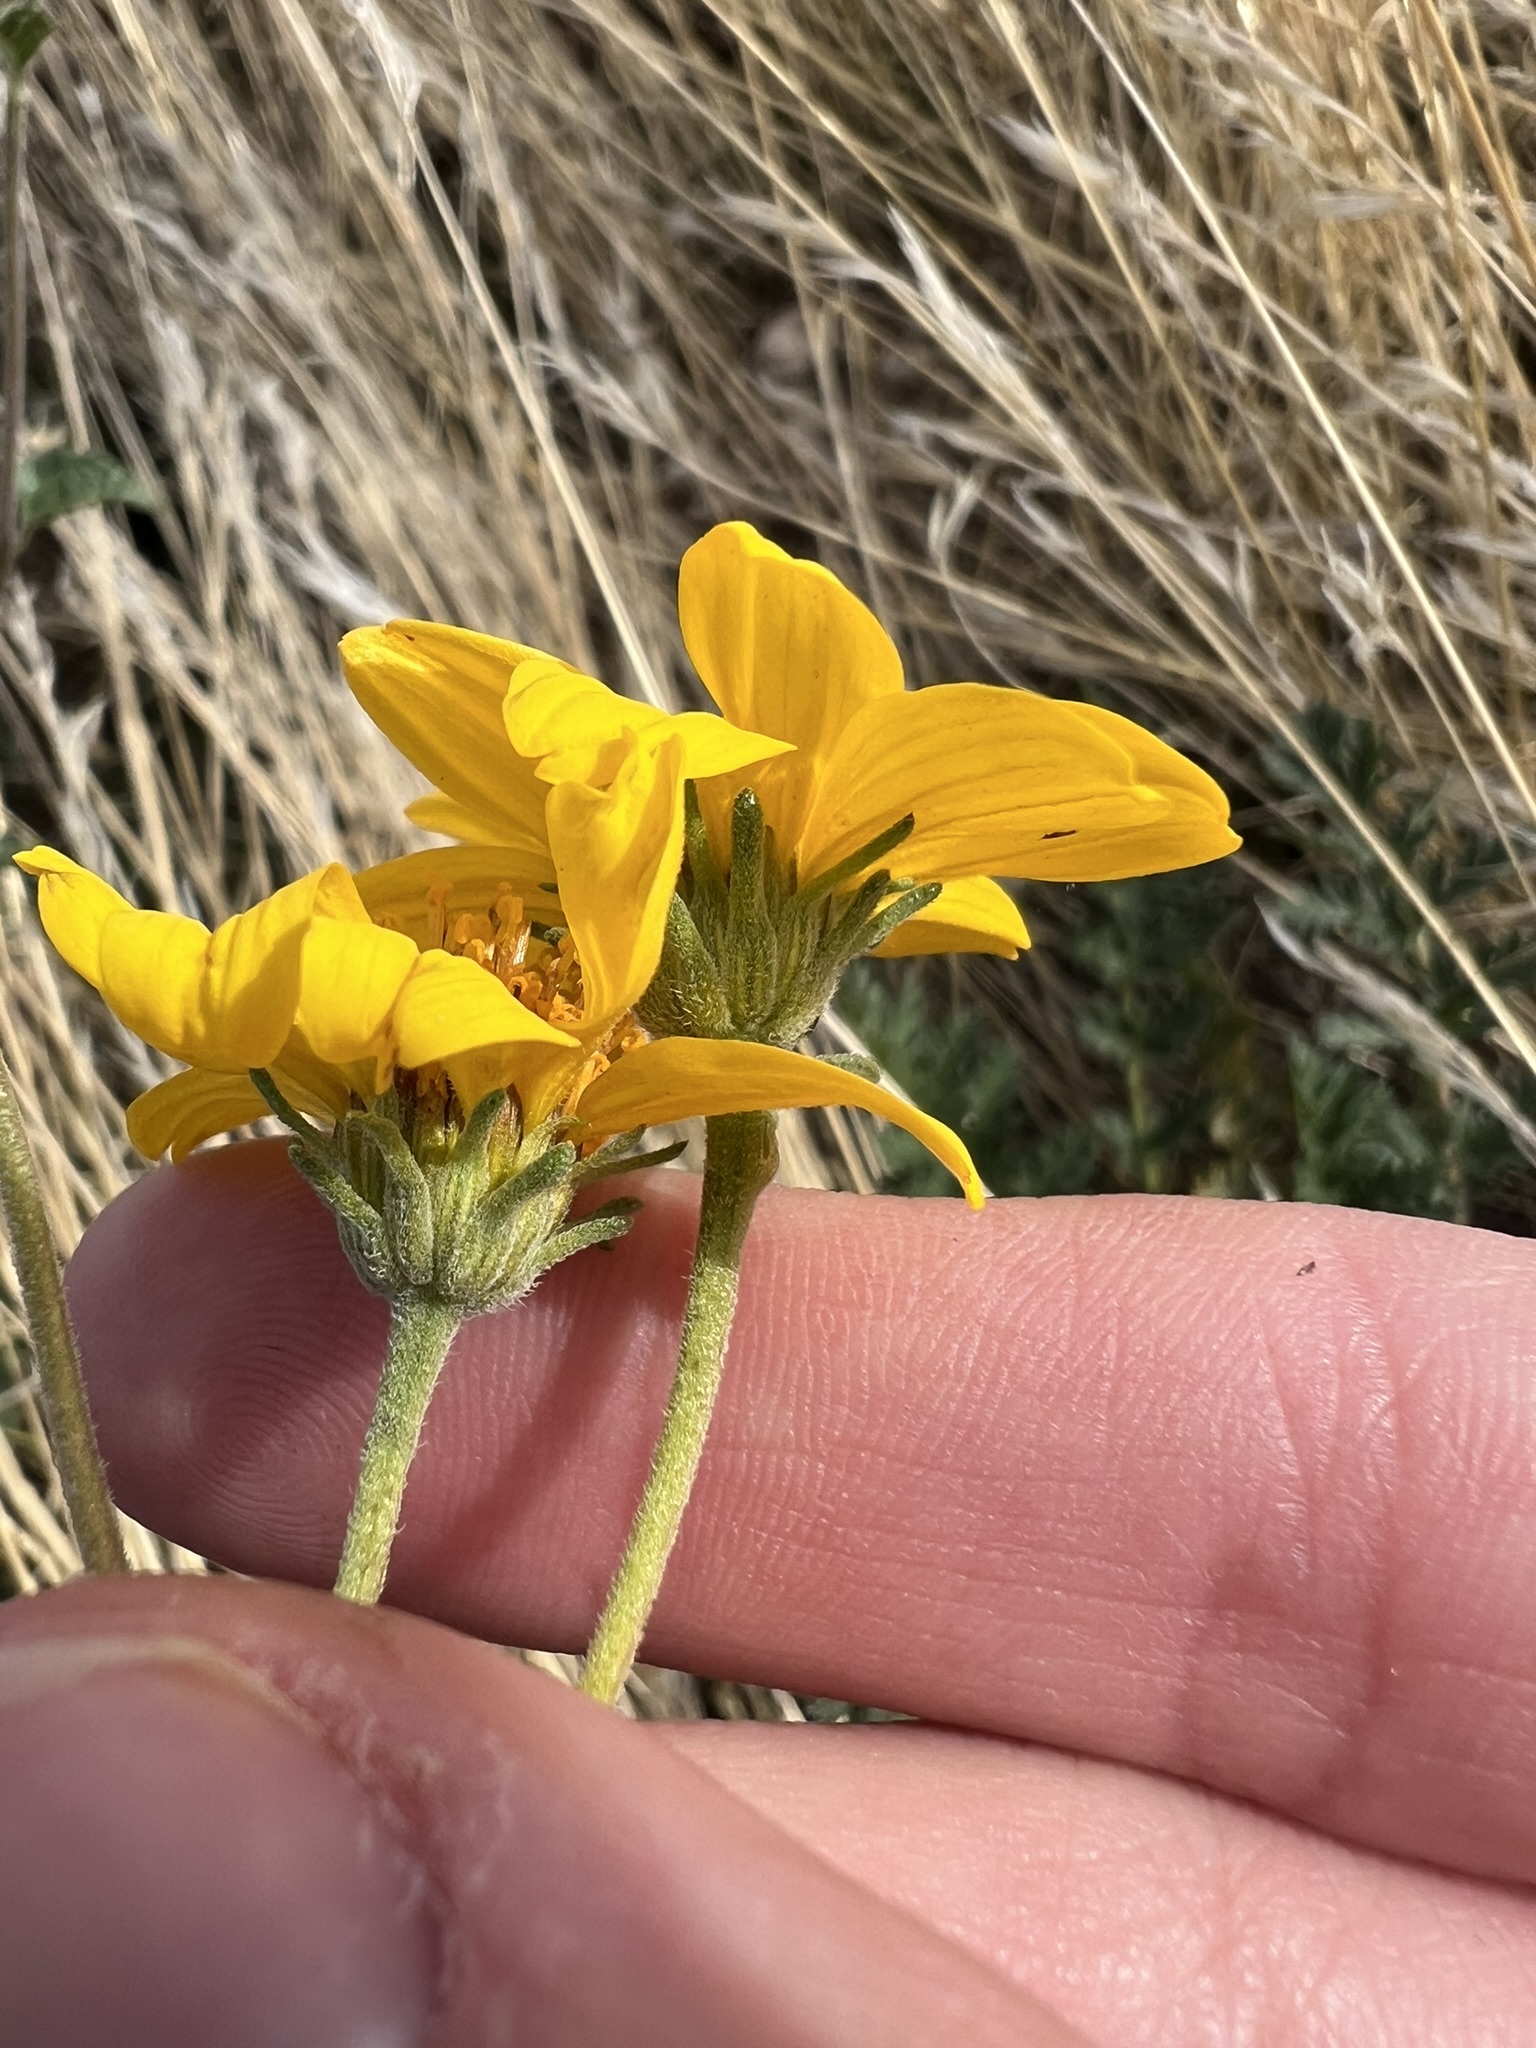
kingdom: Plantae
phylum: Tracheophyta
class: Magnoliopsida
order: Asterales
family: Asteraceae
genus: Bahiopsis
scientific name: Bahiopsis parishii
